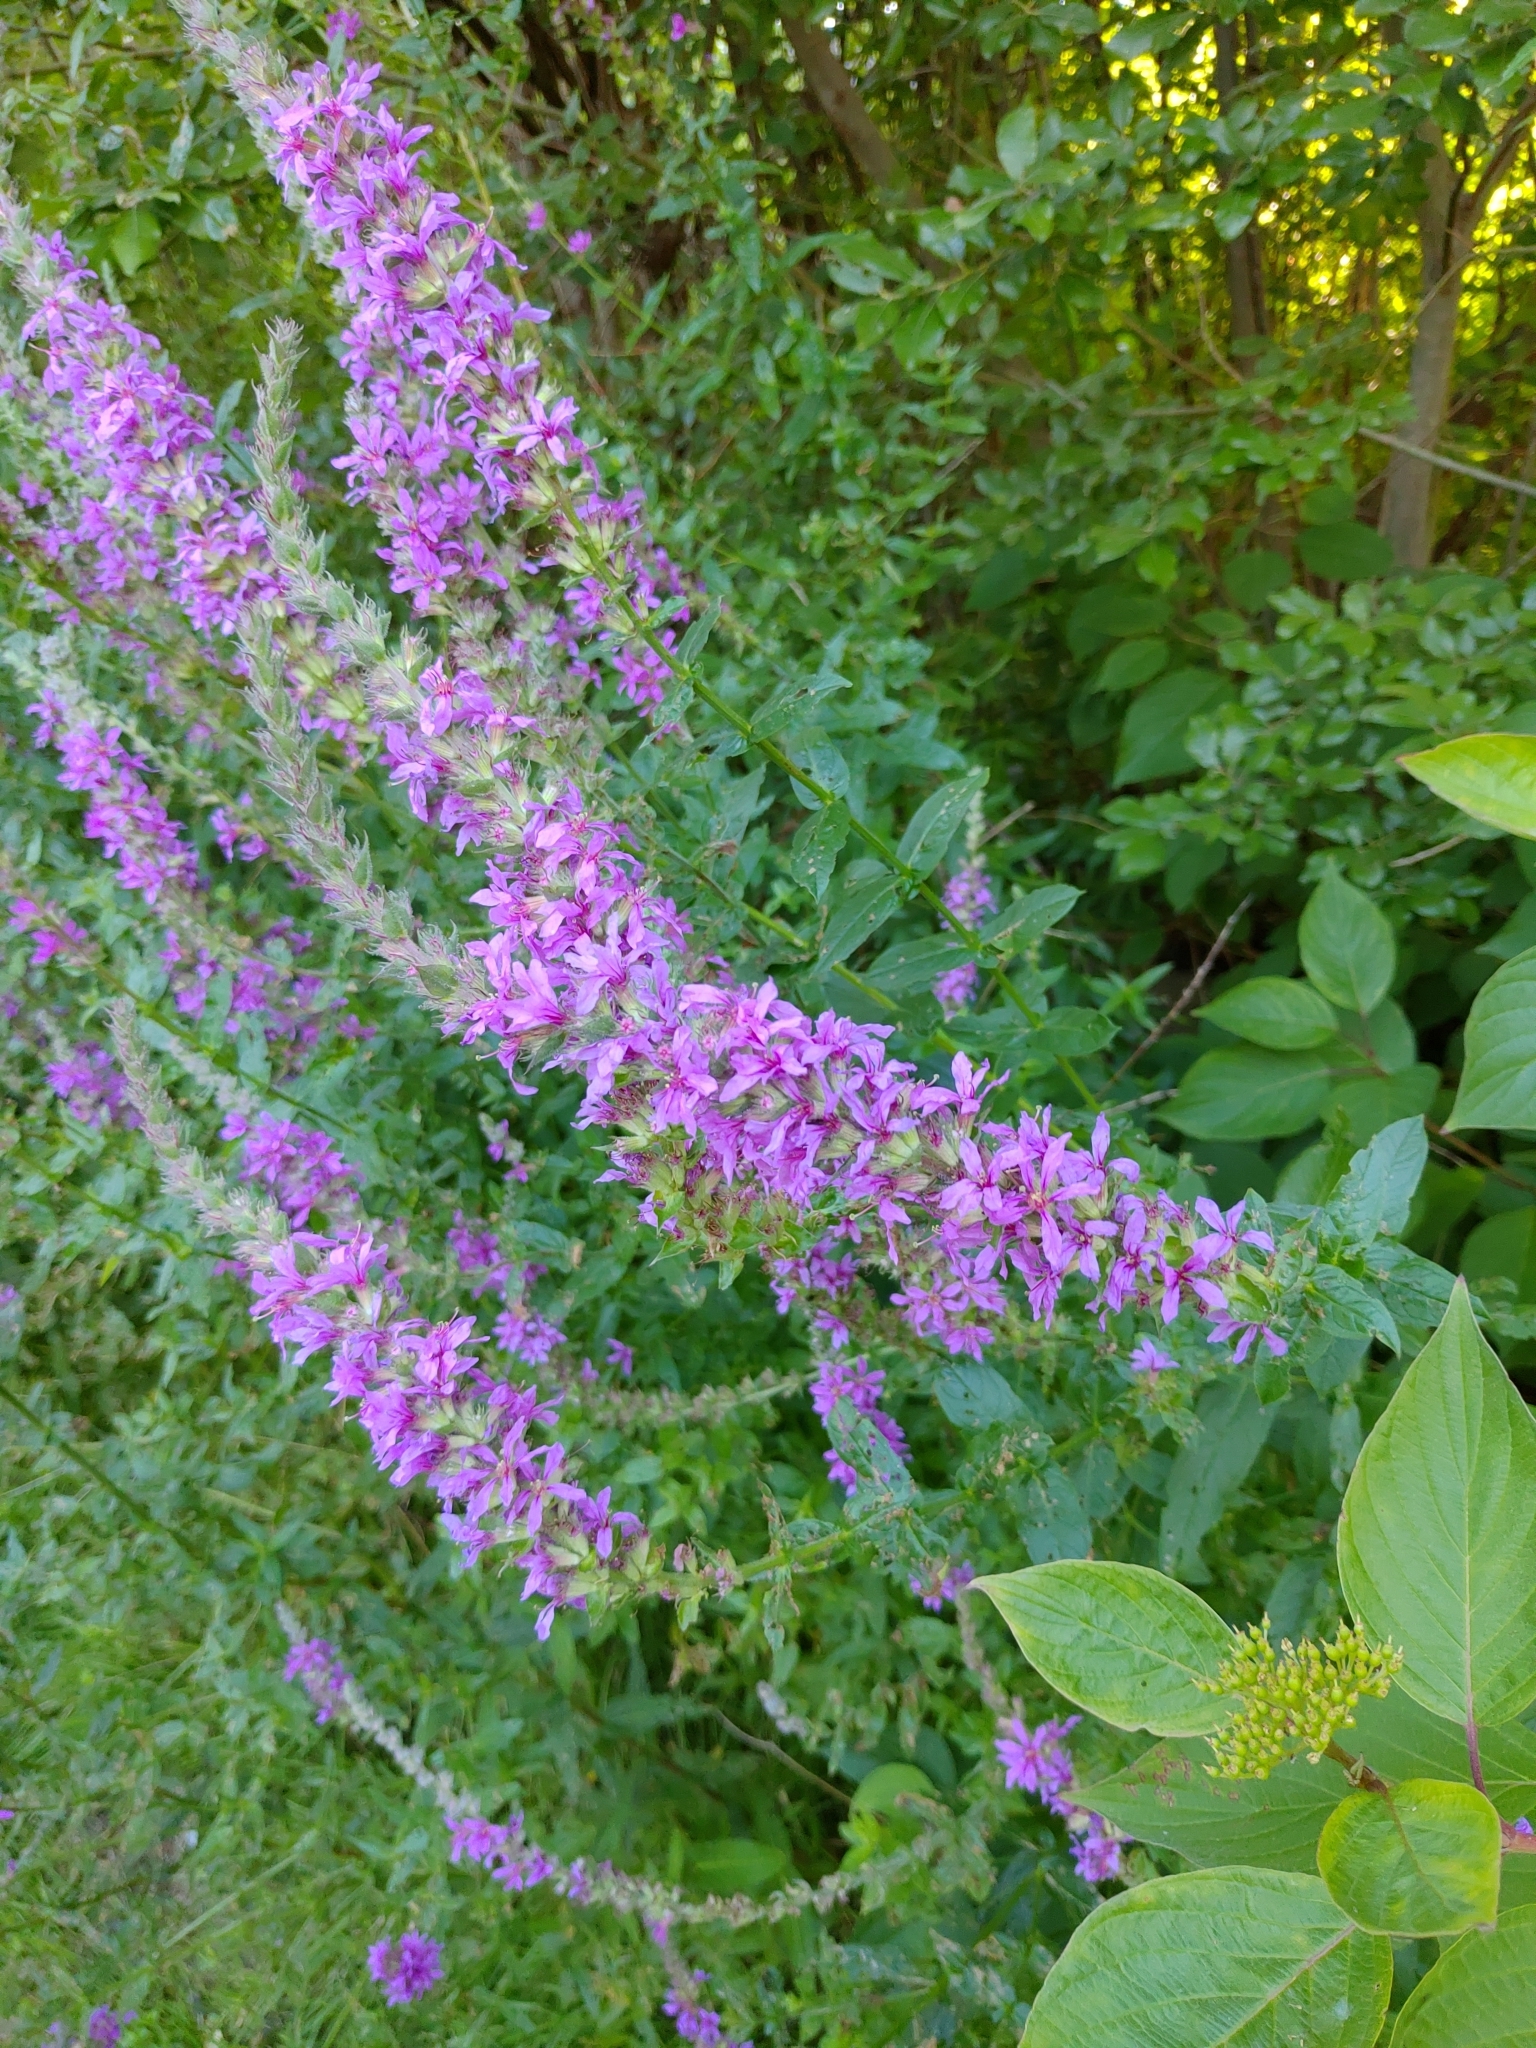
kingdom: Plantae
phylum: Tracheophyta
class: Magnoliopsida
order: Myrtales
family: Lythraceae
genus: Lythrum
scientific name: Lythrum salicaria
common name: Purple loosestrife
